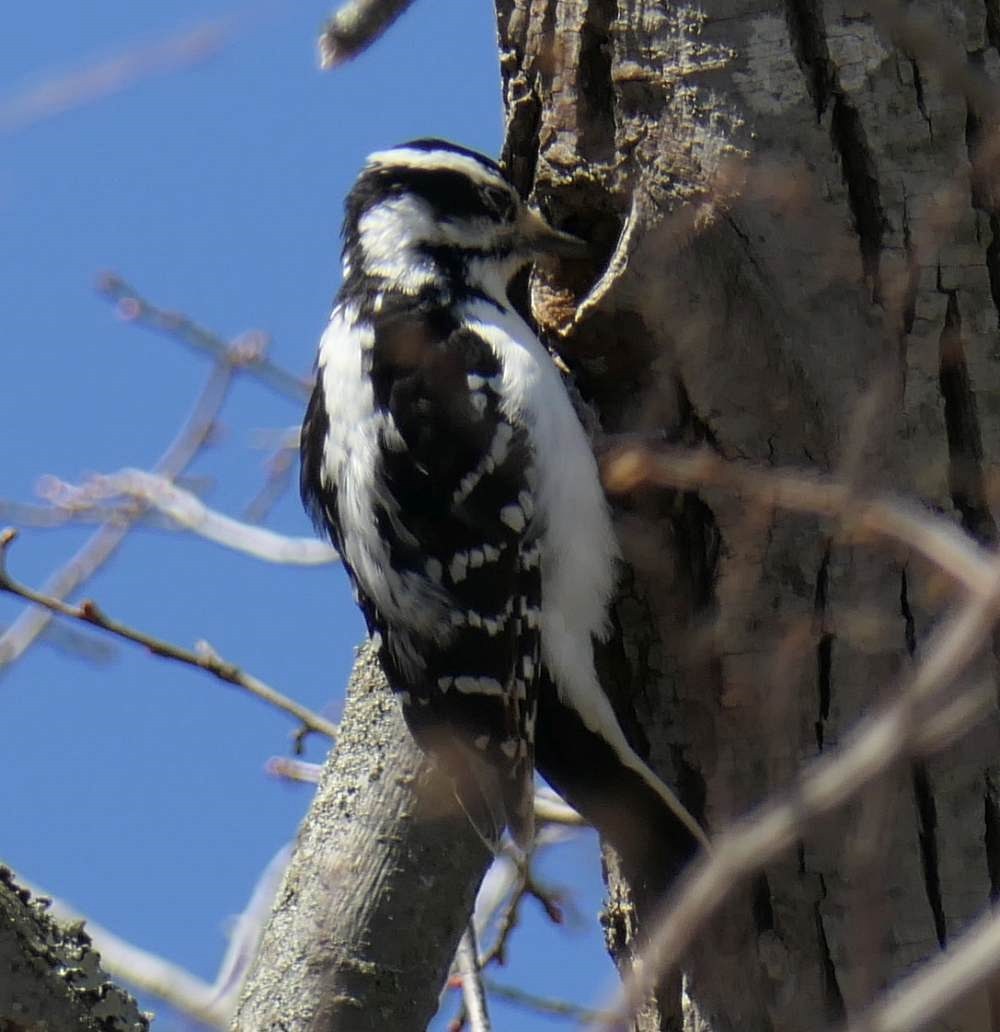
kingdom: Animalia
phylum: Chordata
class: Aves
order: Piciformes
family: Picidae
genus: Dryobates
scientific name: Dryobates pubescens
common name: Downy woodpecker
